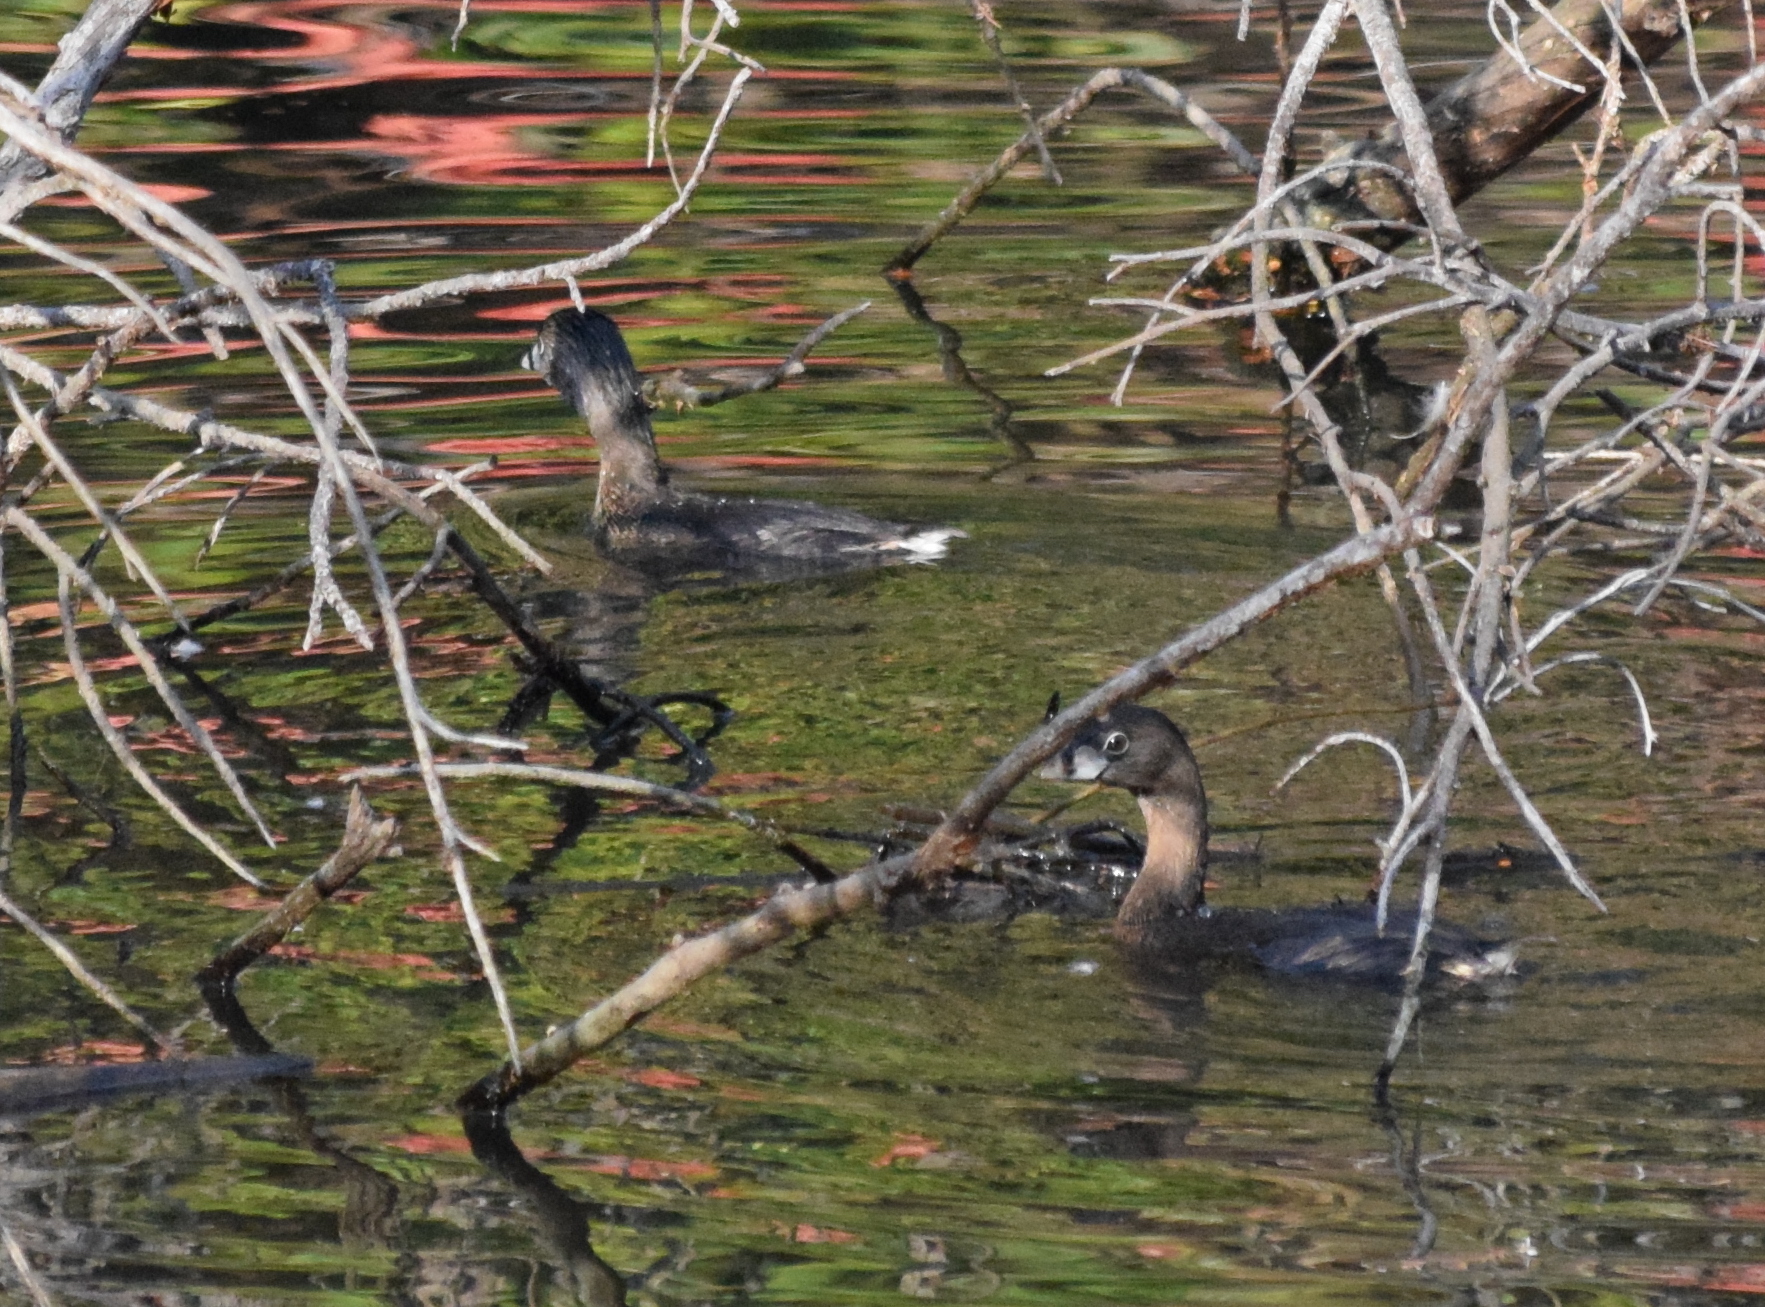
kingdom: Animalia
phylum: Chordata
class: Aves
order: Podicipediformes
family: Podicipedidae
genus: Podilymbus
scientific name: Podilymbus podiceps
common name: Pied-billed grebe
